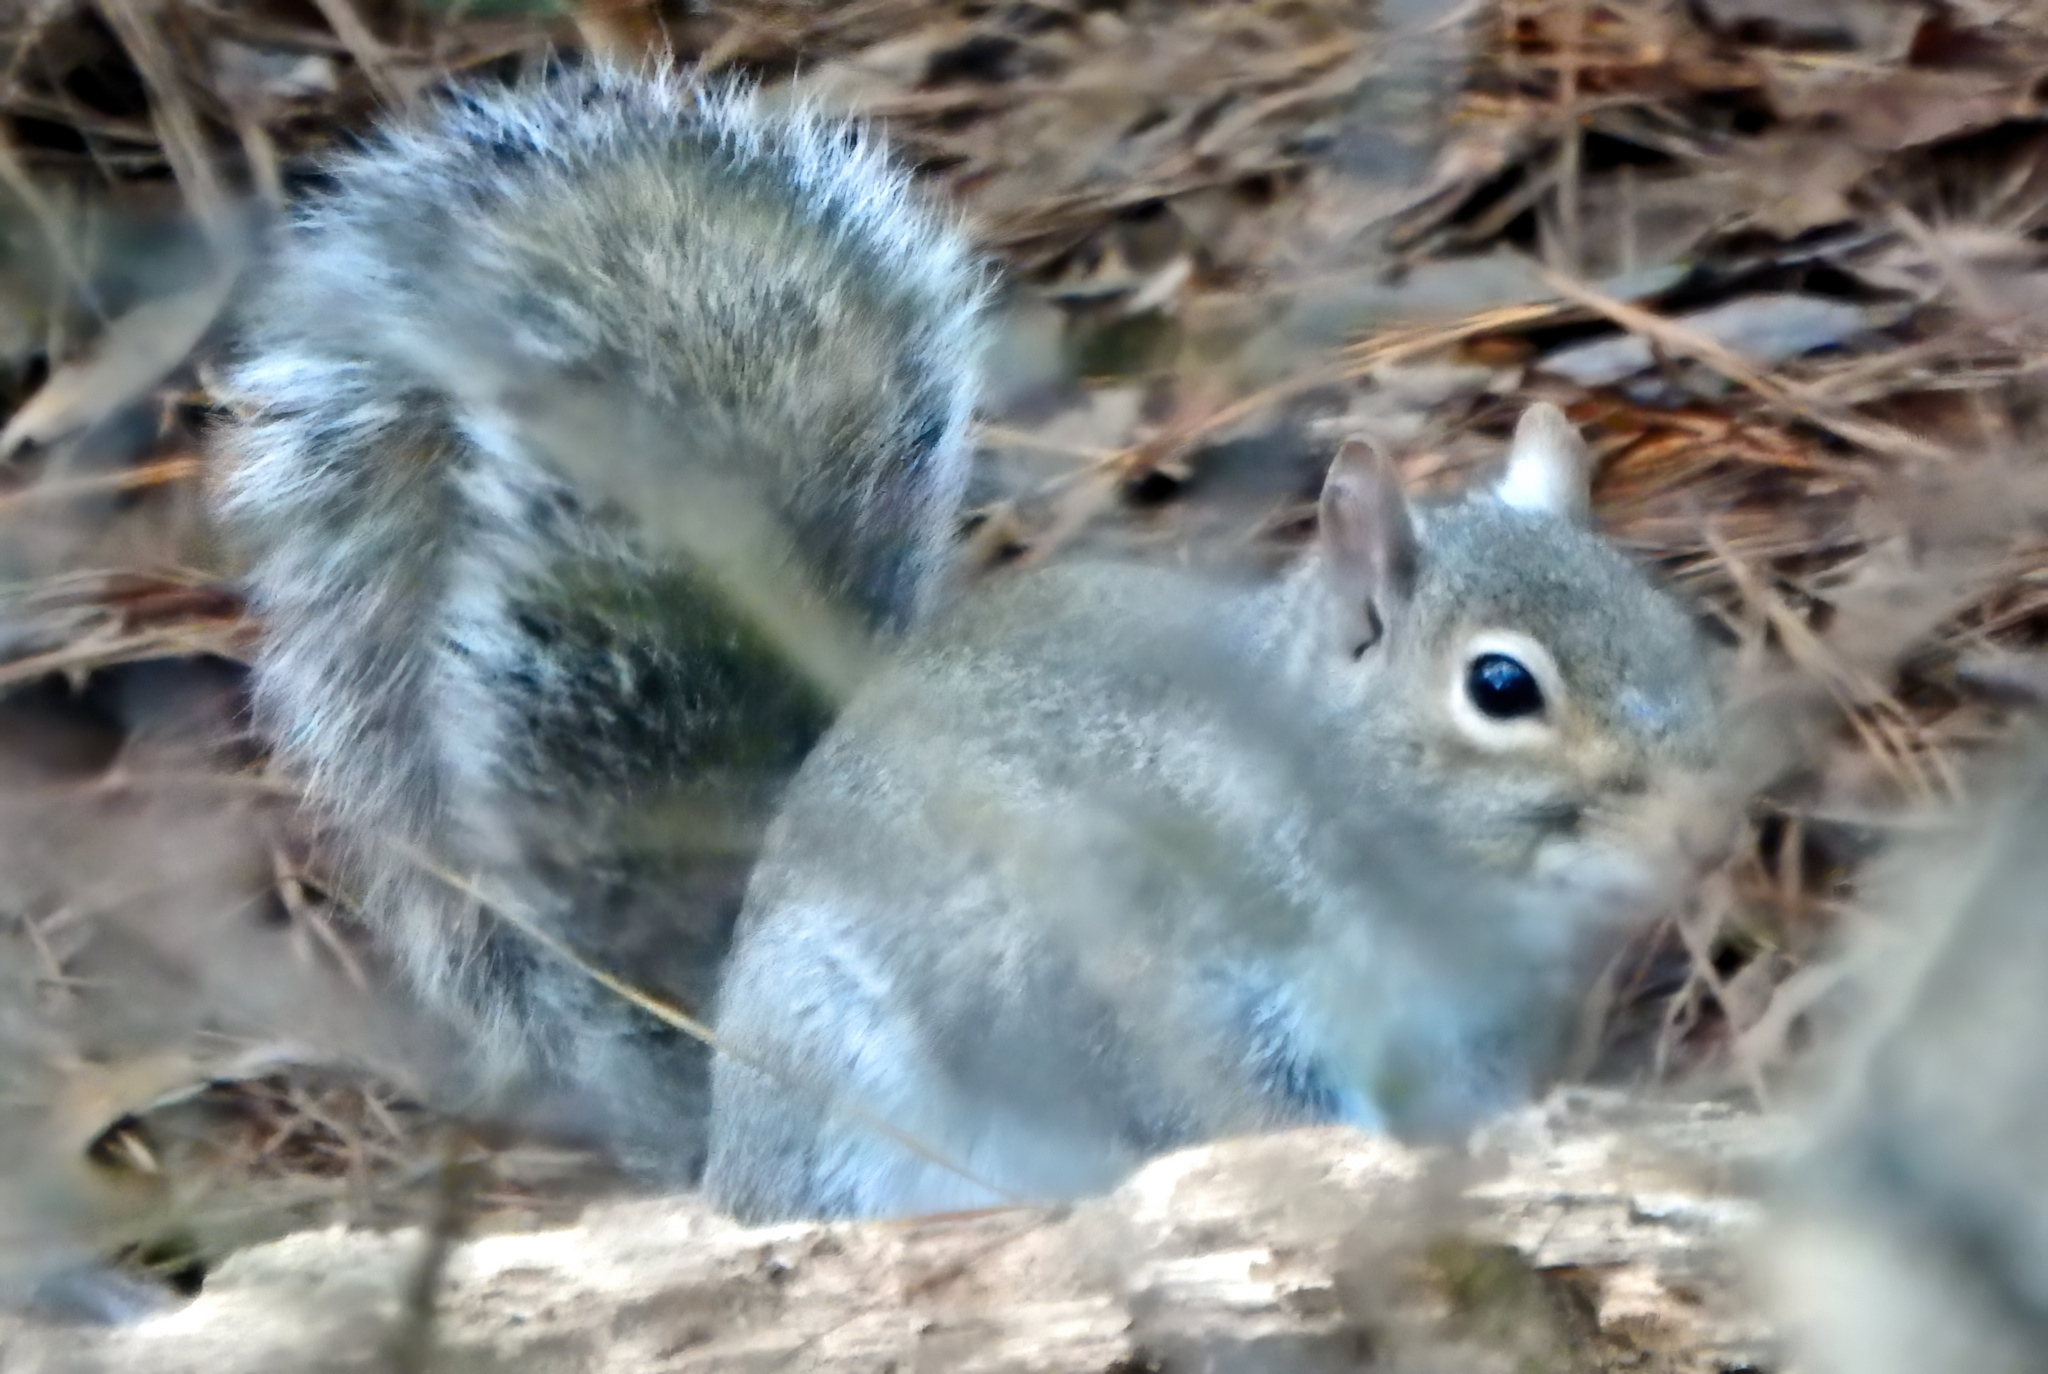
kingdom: Animalia
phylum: Chordata
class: Mammalia
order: Rodentia
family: Sciuridae
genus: Sciurus
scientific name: Sciurus carolinensis
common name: Eastern gray squirrel
